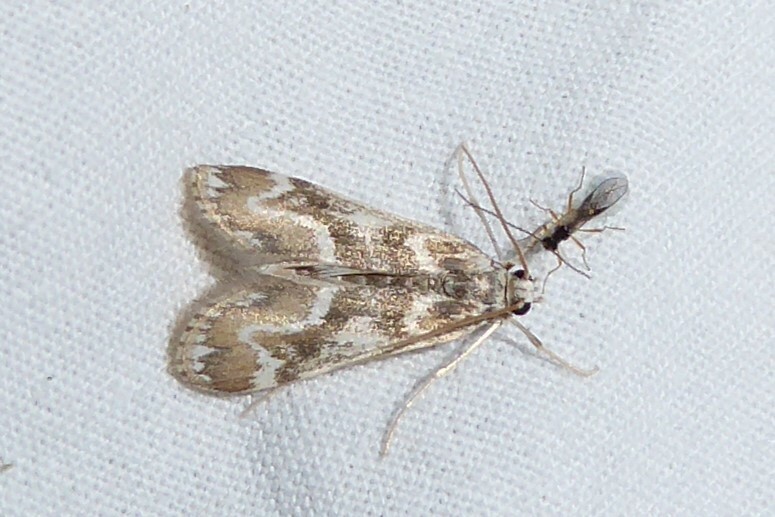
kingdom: Animalia
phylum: Arthropoda
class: Insecta
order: Lepidoptera
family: Crambidae
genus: Hygraula
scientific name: Hygraula nitens
